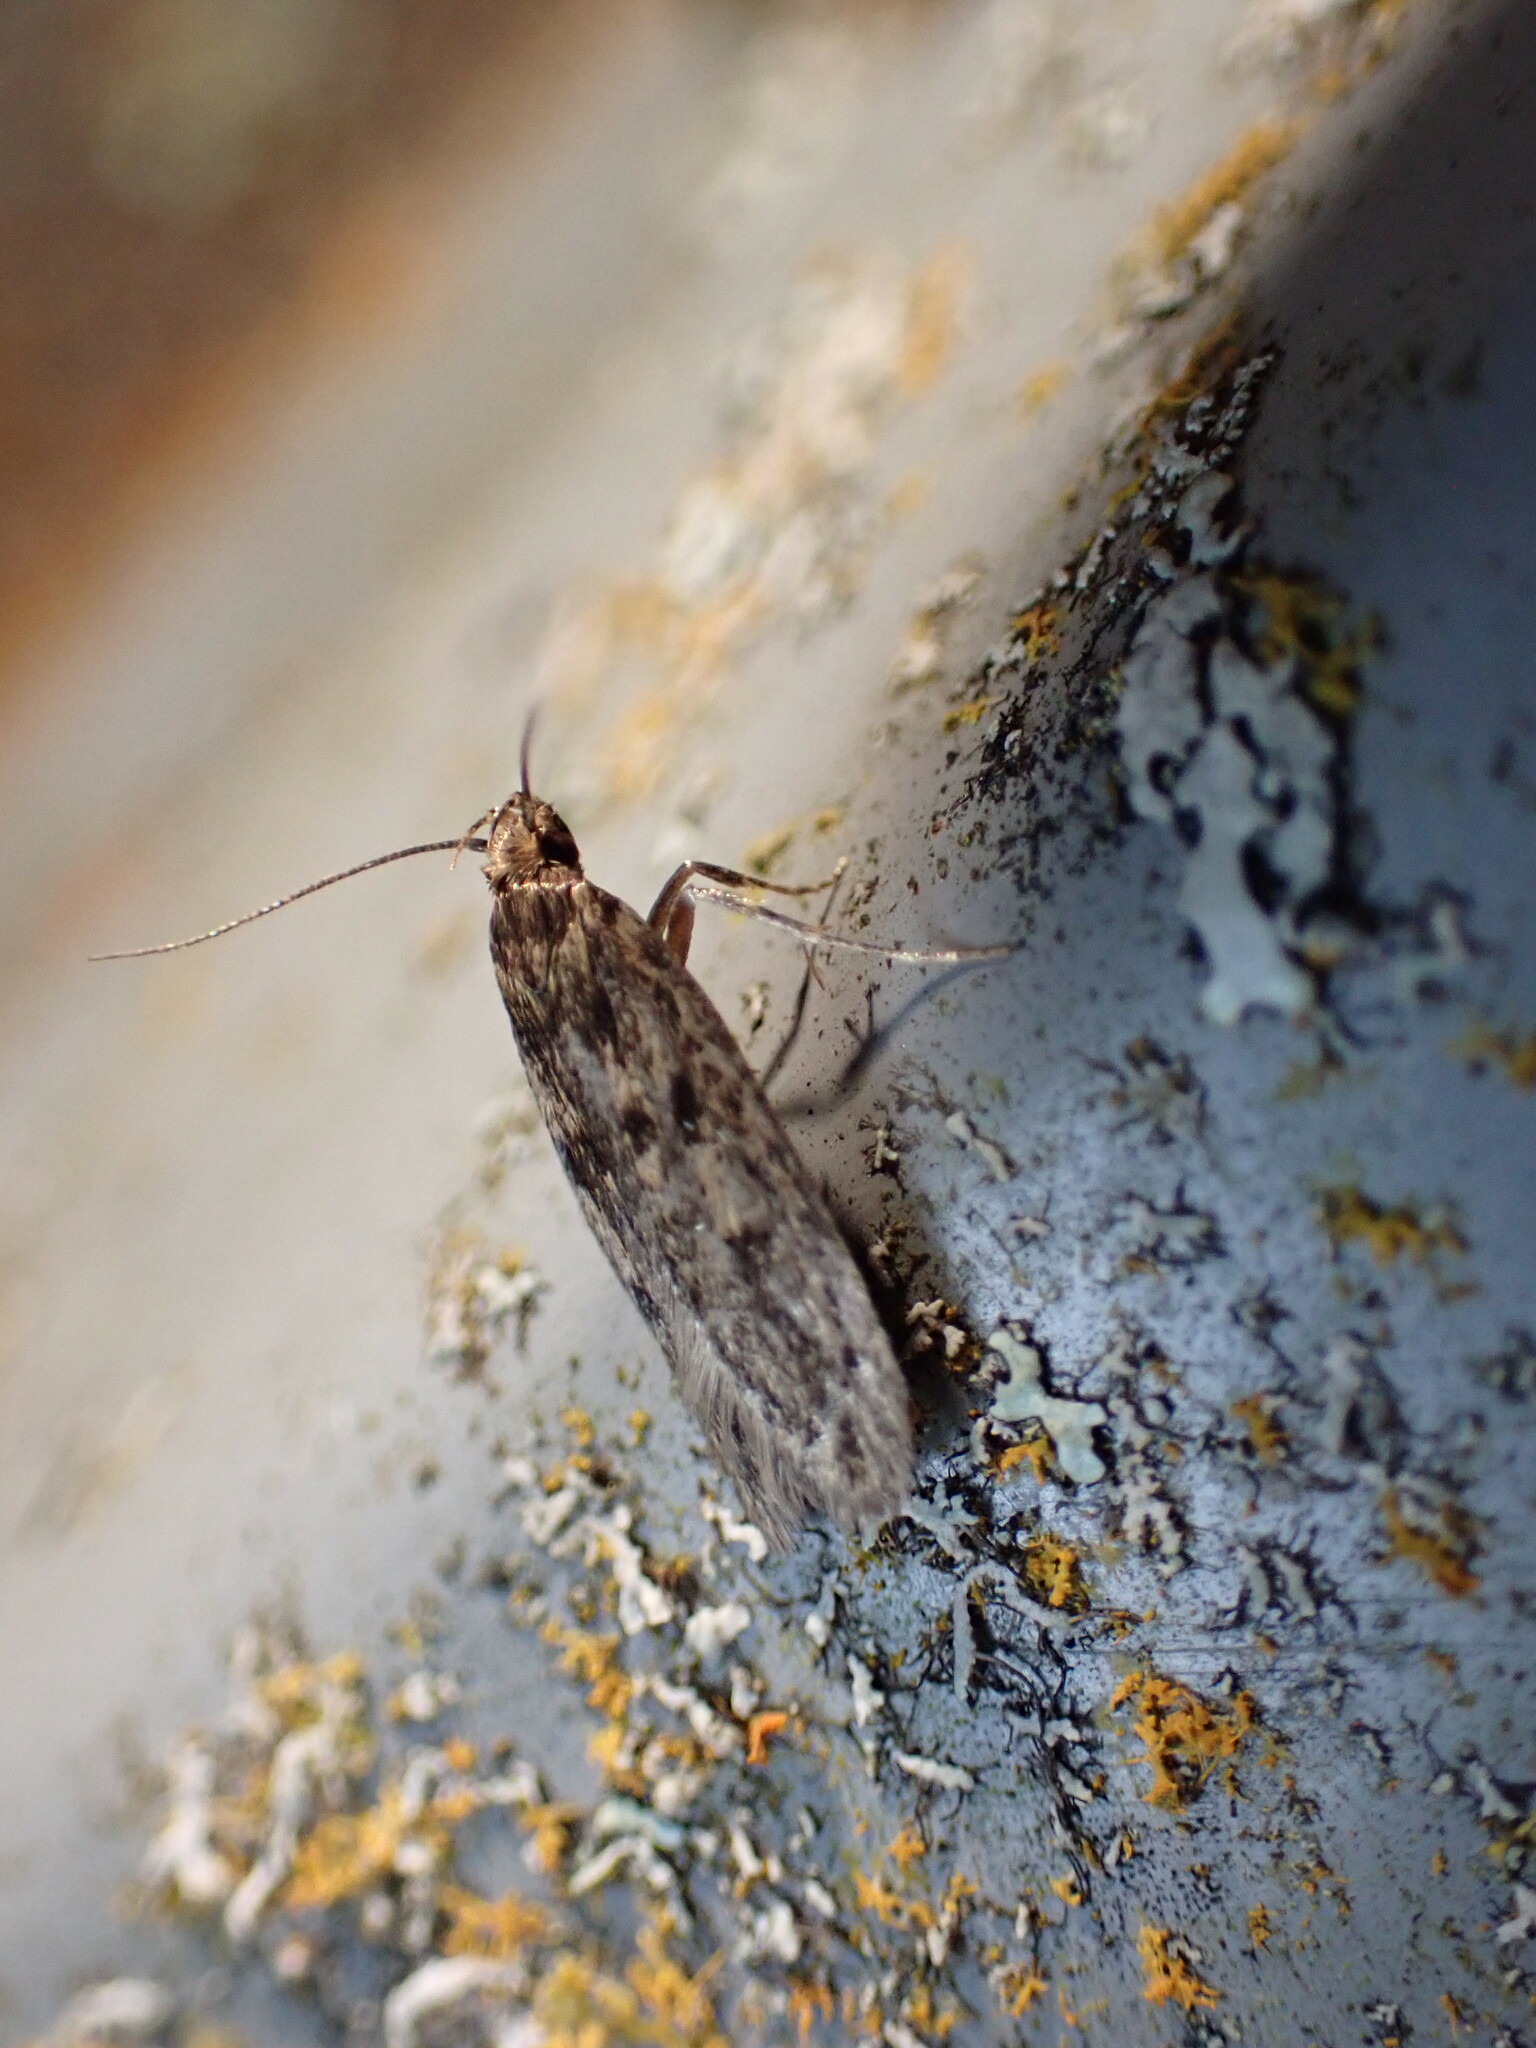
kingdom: Animalia
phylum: Arthropoda
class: Insecta
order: Lepidoptera
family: Oecophoridae
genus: Hofmannophila
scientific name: Hofmannophila pseudospretella
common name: Brown house moth
